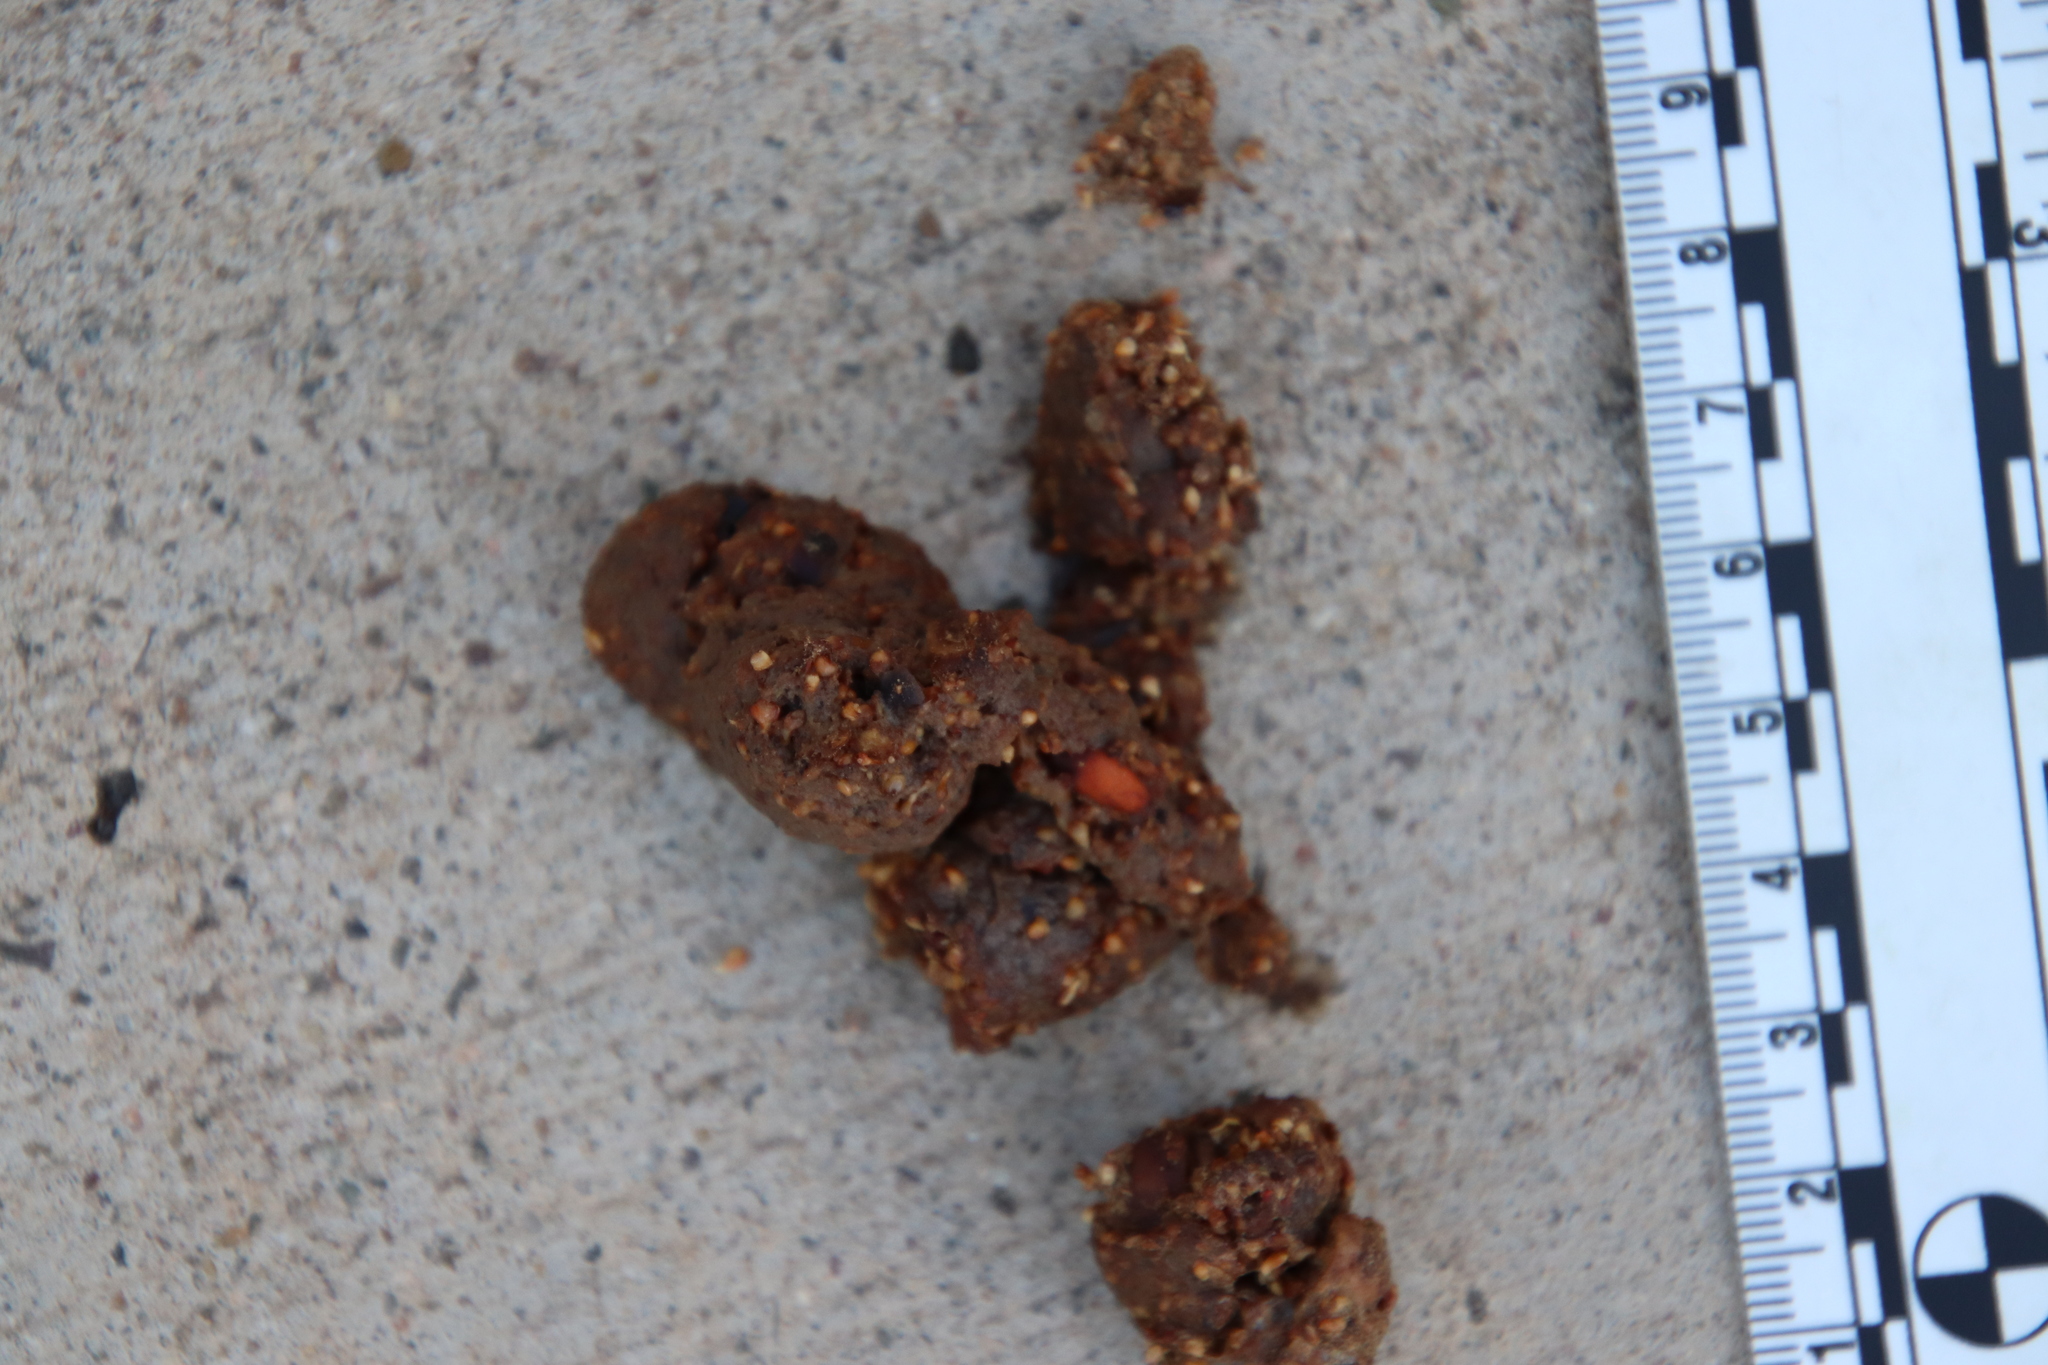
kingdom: Animalia
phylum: Chordata
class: Mammalia
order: Carnivora
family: Canidae
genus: Canis
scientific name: Canis latrans
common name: Coyote
